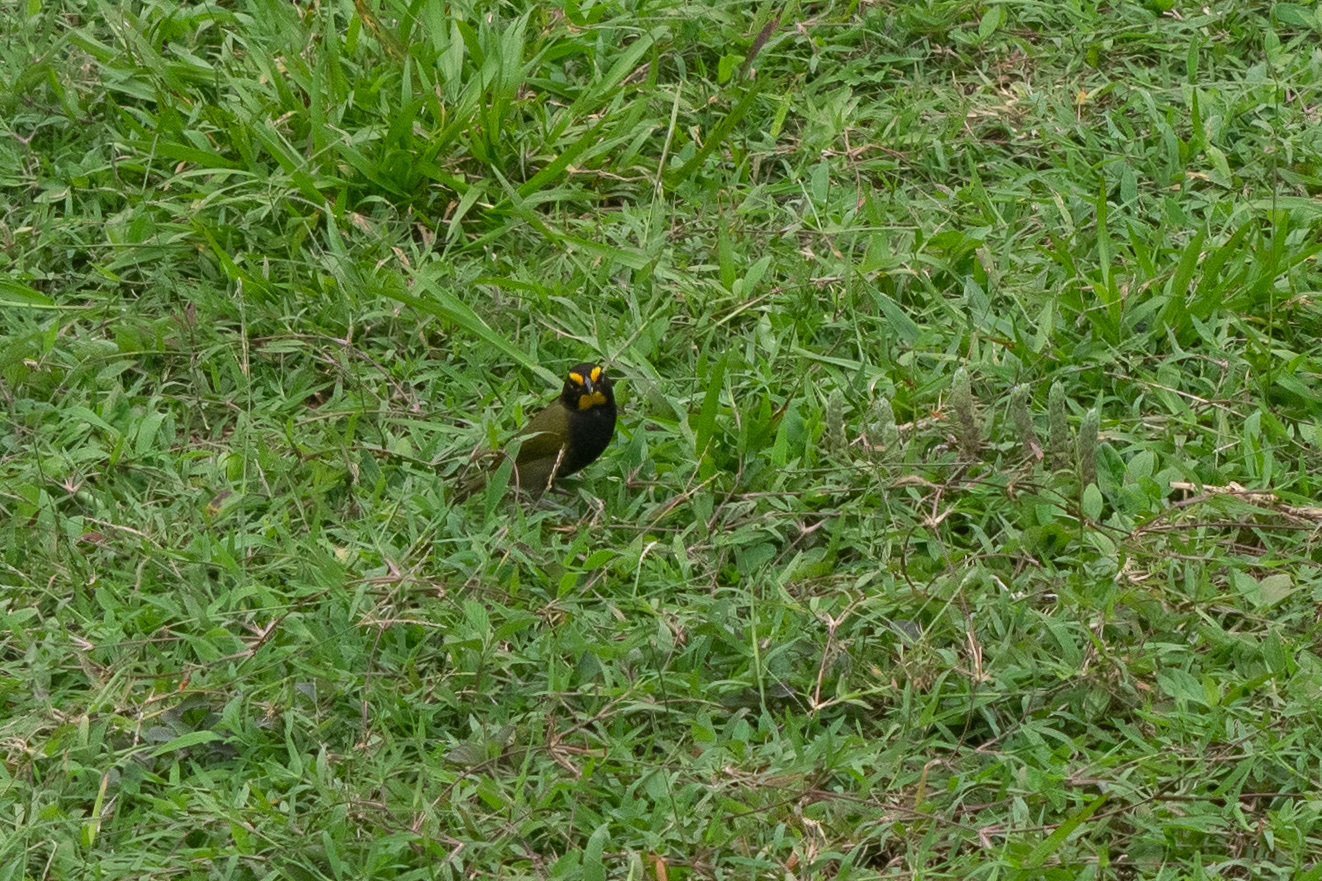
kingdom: Animalia
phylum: Chordata
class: Aves
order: Passeriformes
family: Thraupidae
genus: Tiaris
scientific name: Tiaris olivaceus
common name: Yellow-faced grassquit
